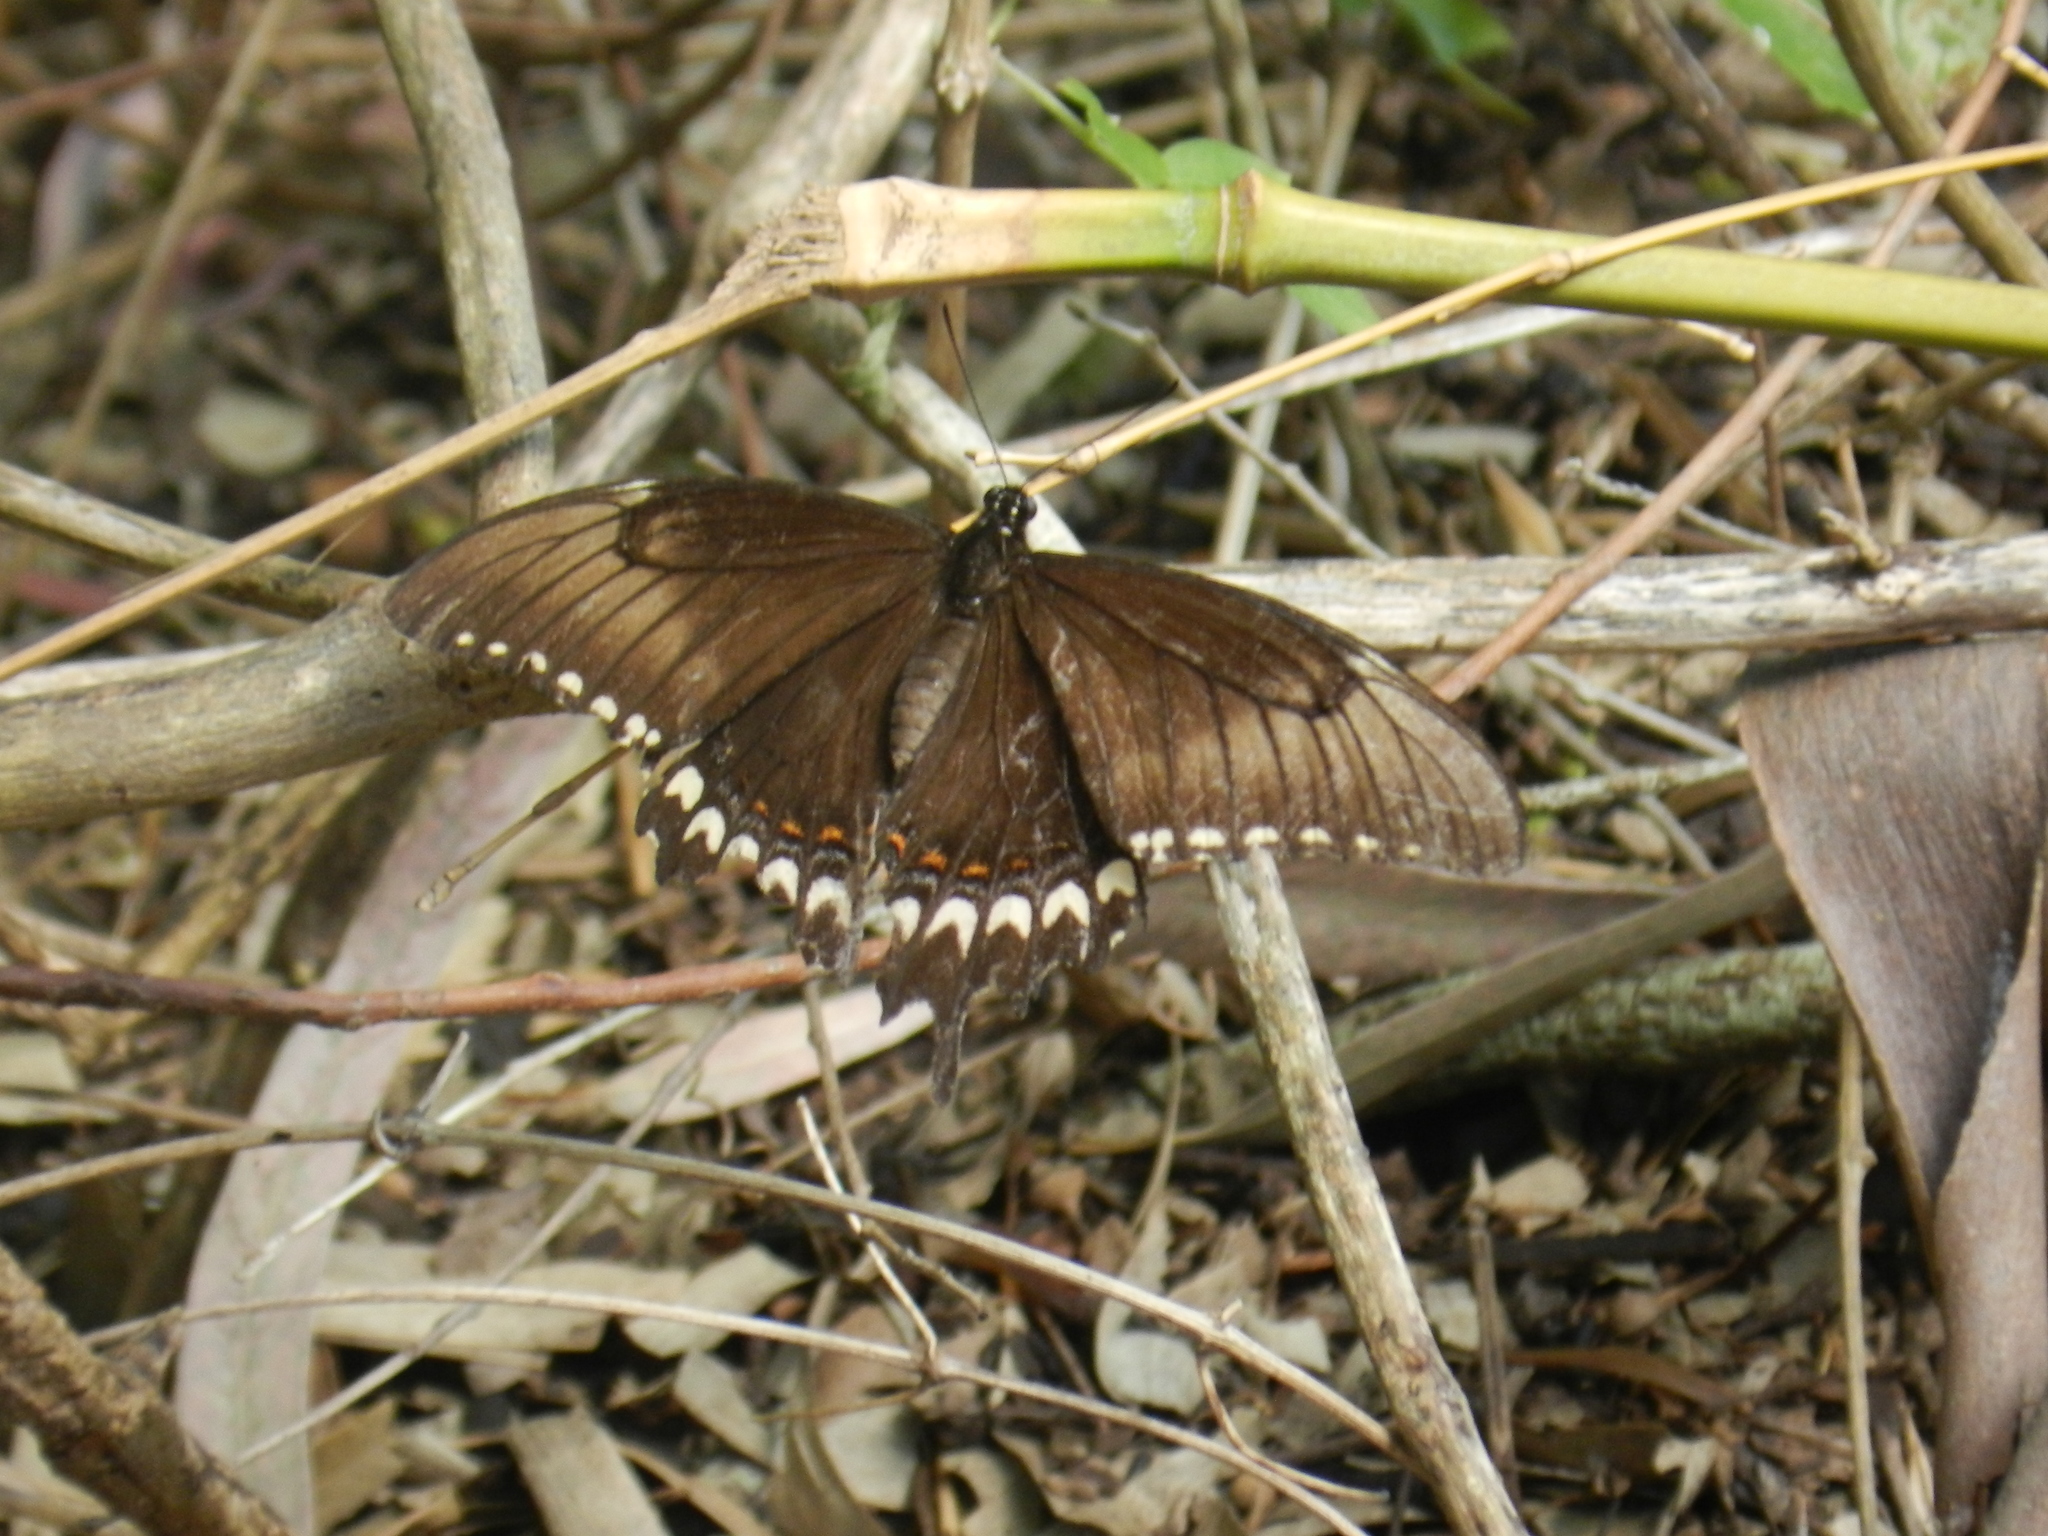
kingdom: Animalia
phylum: Arthropoda
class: Insecta
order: Lepidoptera
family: Papilionidae
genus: Papilio
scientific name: Papilio astyalus
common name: Astyalus swallowtail
